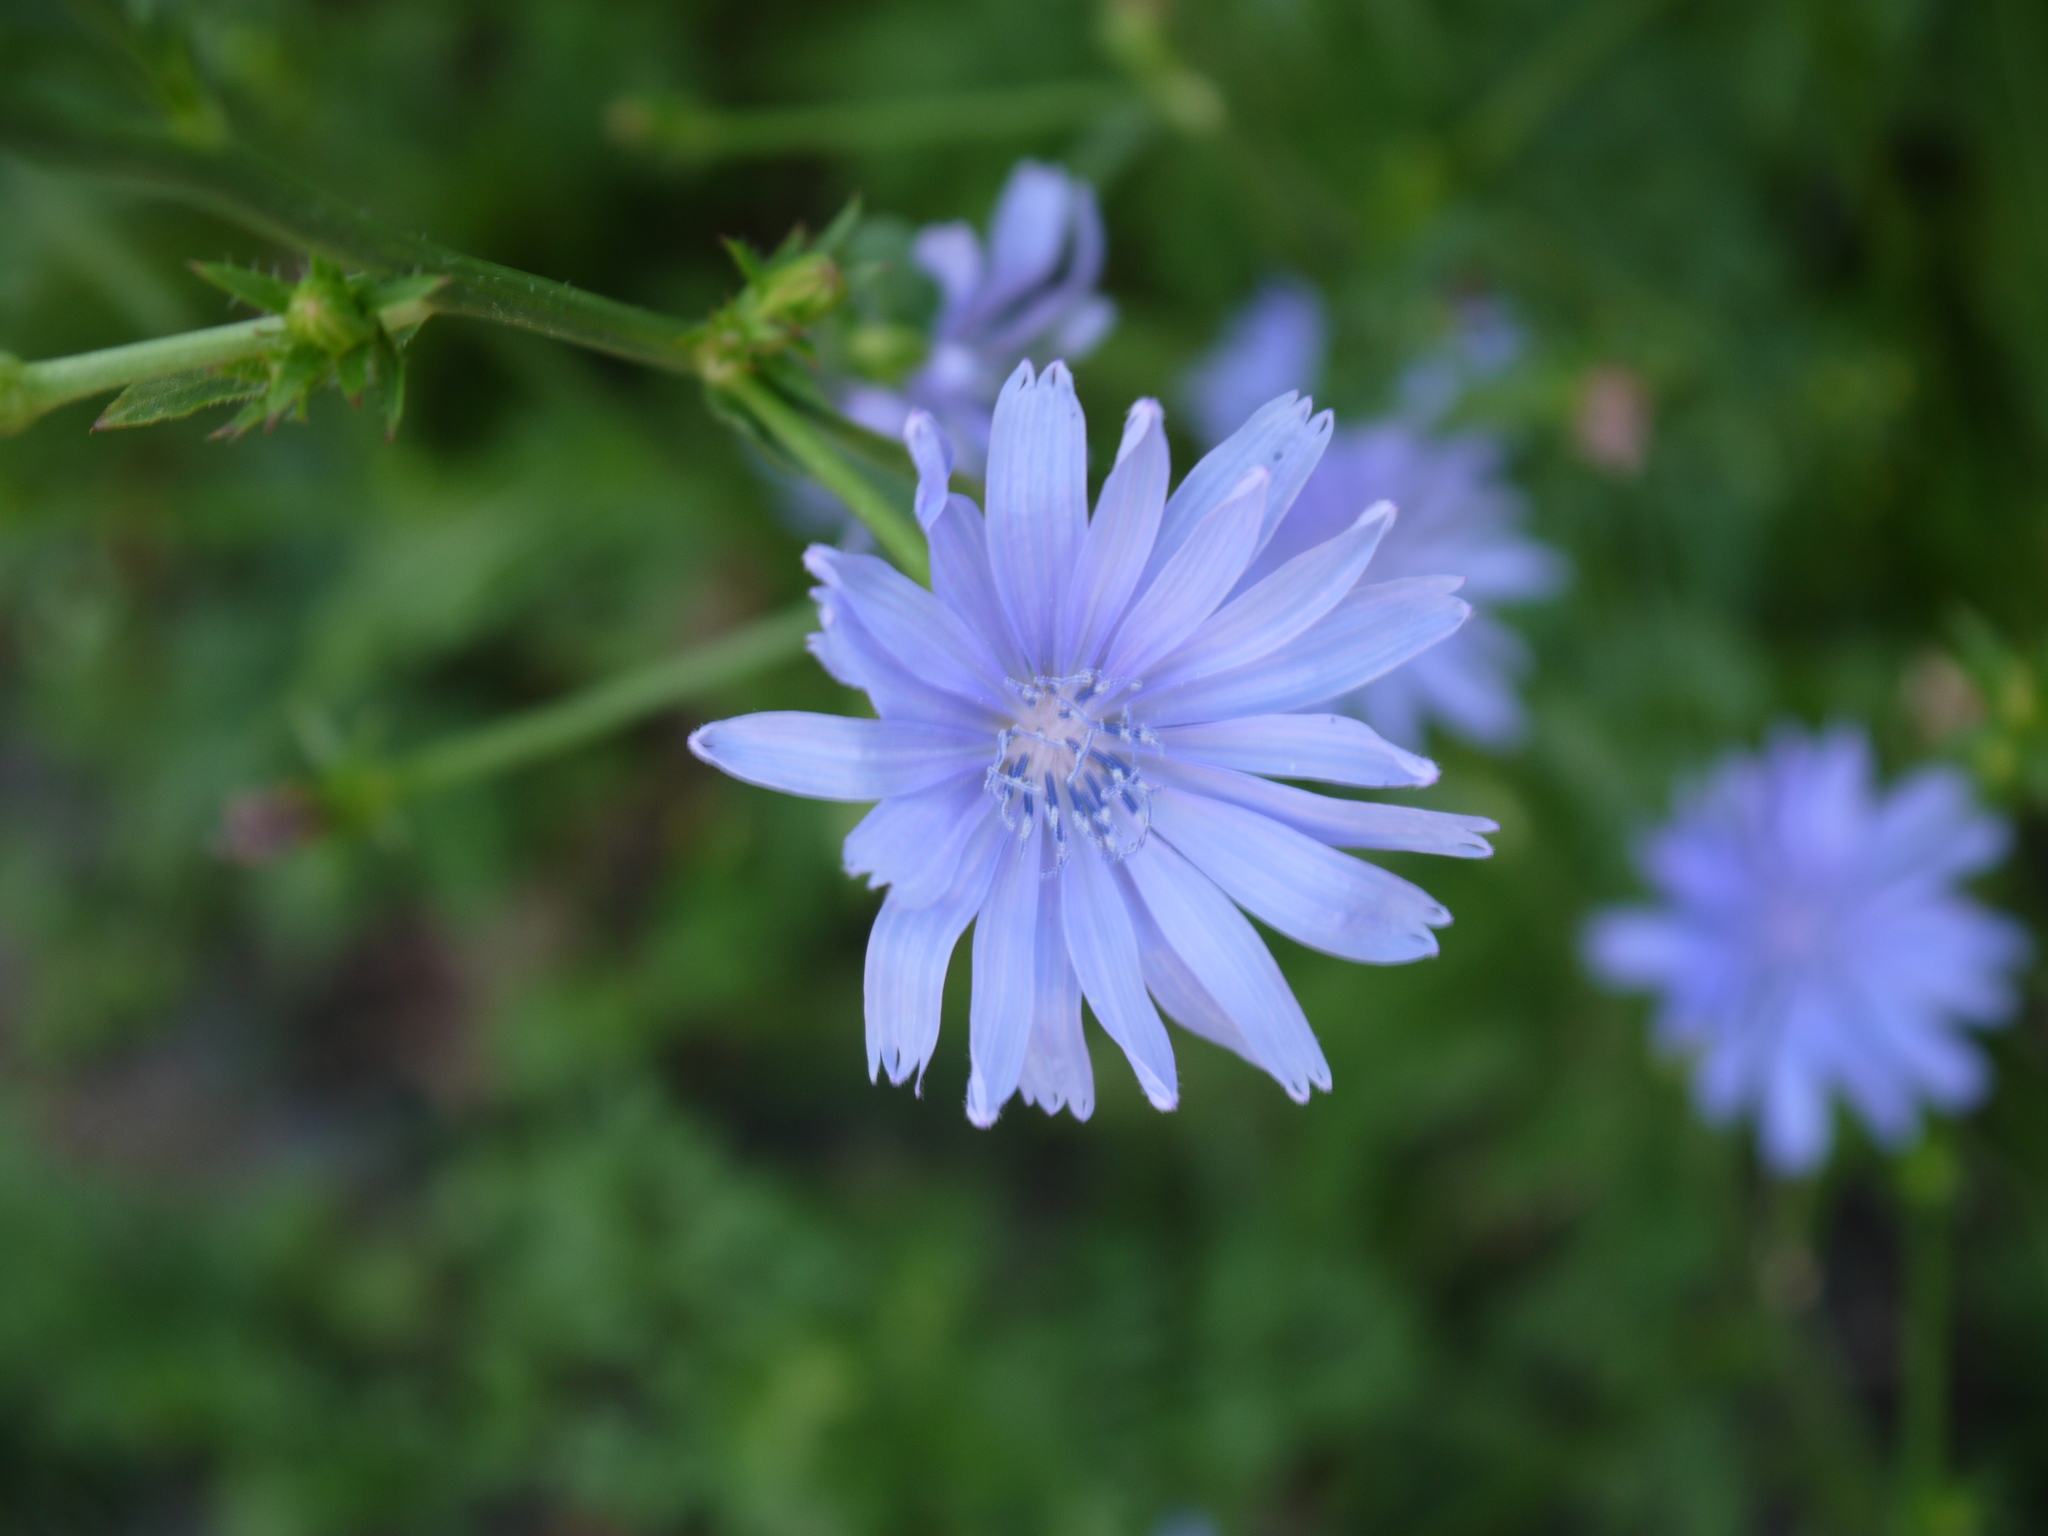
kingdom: Plantae
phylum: Tracheophyta
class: Magnoliopsida
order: Asterales
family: Asteraceae
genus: Cichorium
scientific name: Cichorium intybus
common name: Chicory
